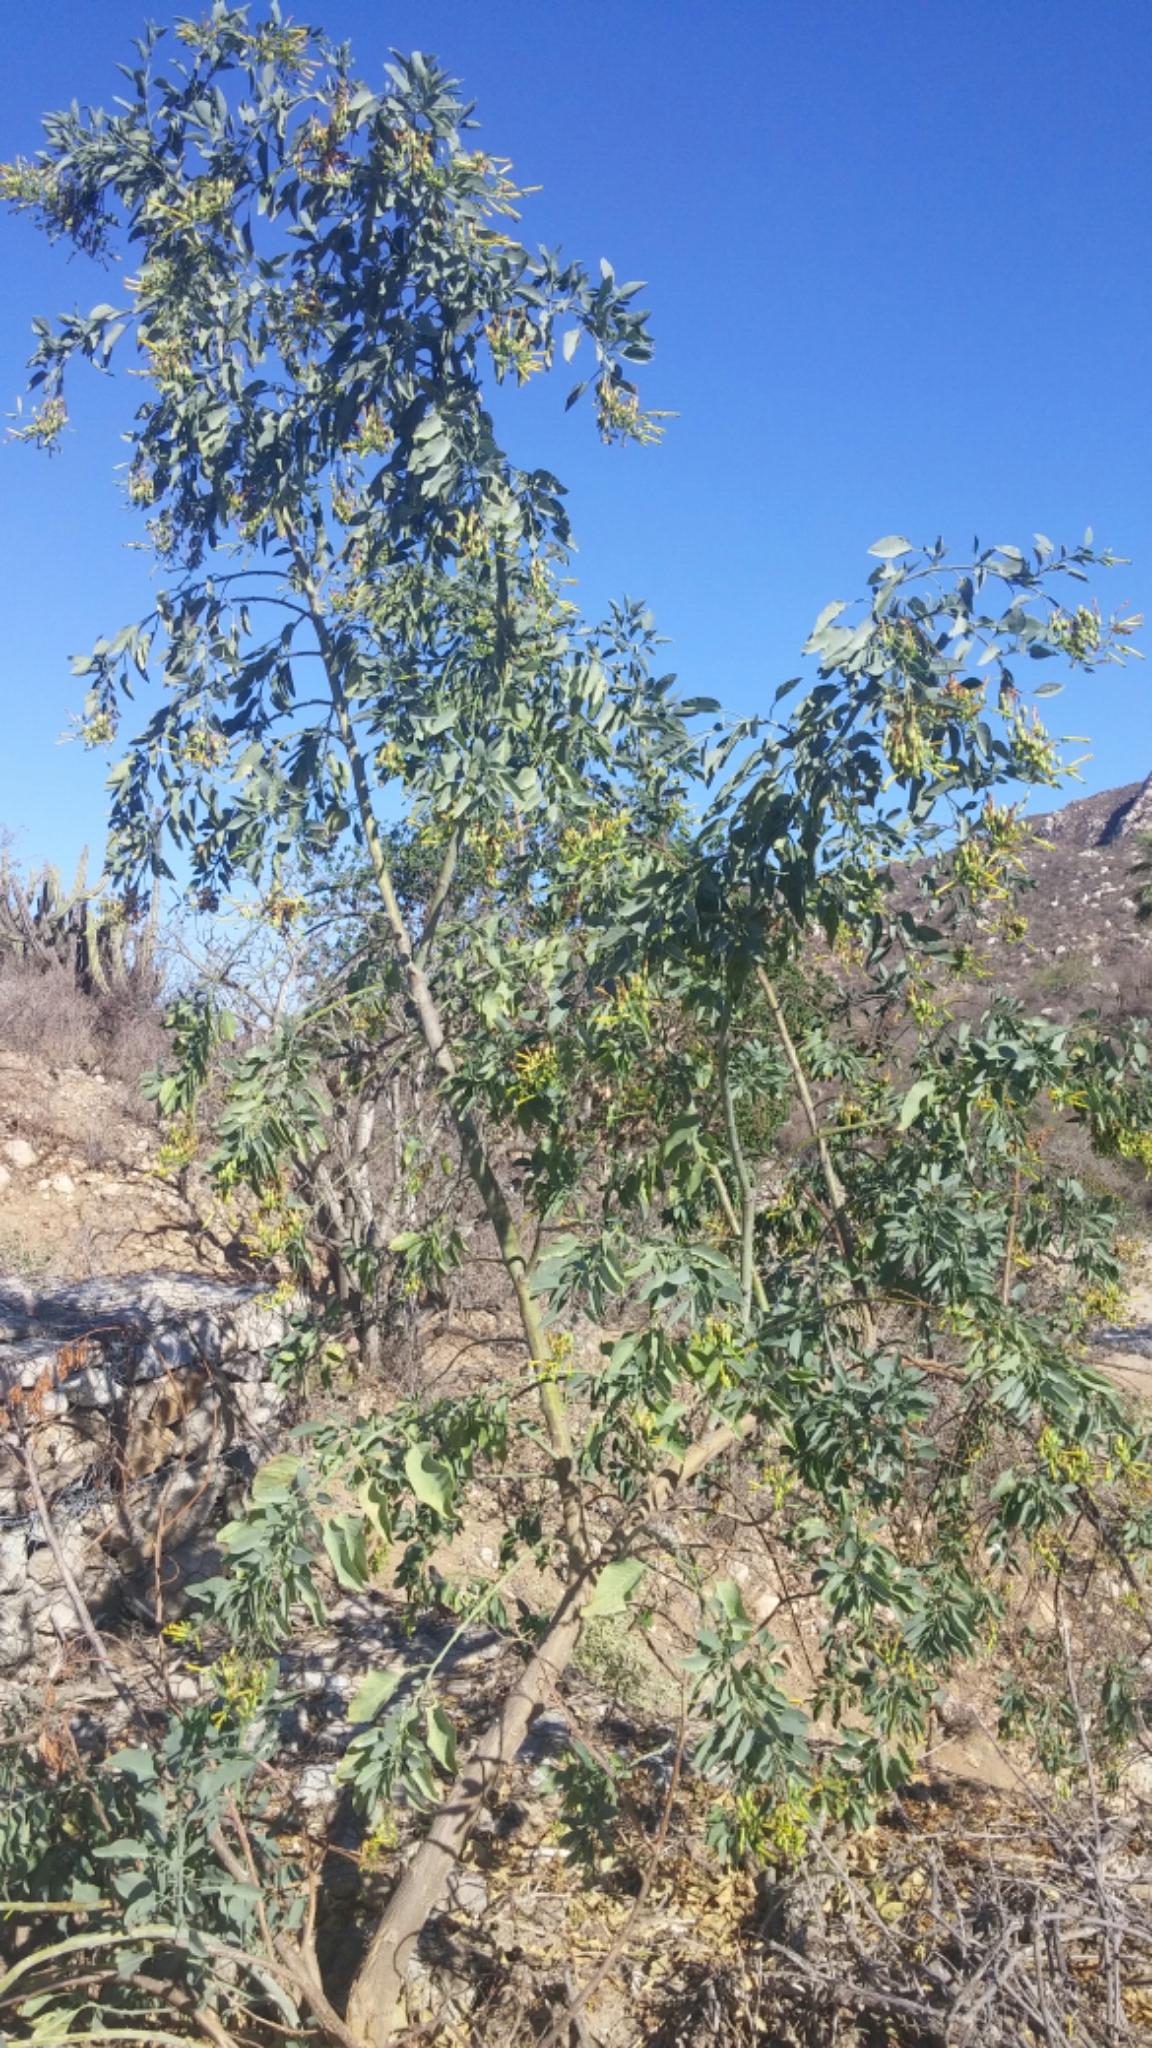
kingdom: Plantae
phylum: Tracheophyta
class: Magnoliopsida
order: Solanales
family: Solanaceae
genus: Nicotiana
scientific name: Nicotiana glauca
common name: Tree tobacco
